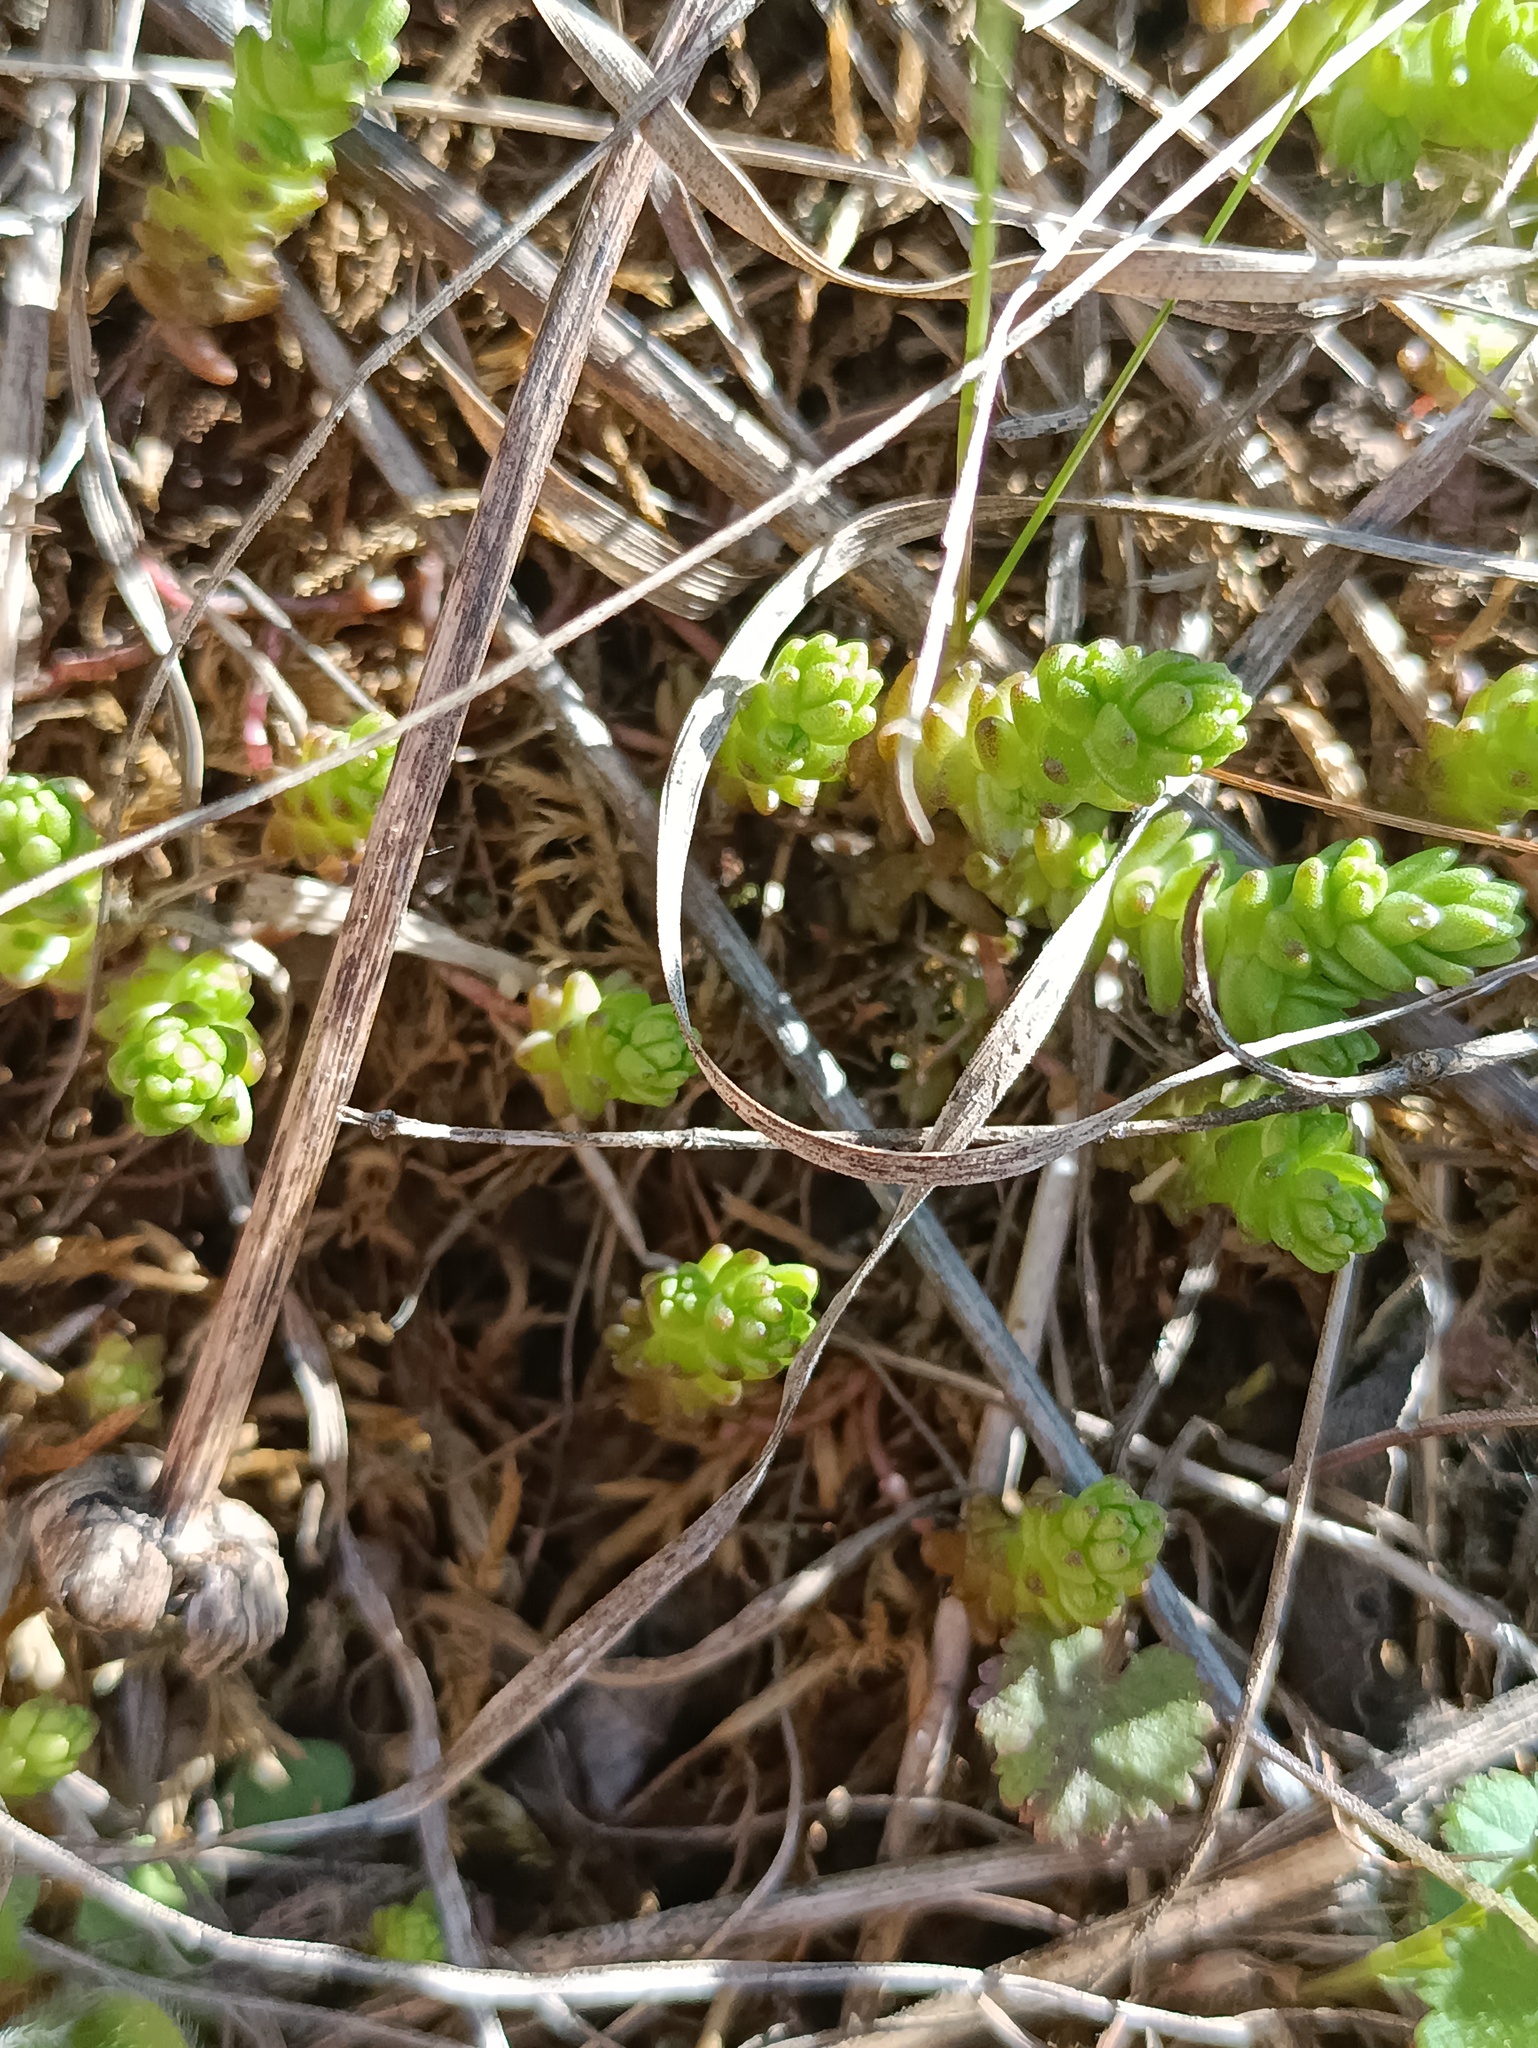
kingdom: Plantae
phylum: Tracheophyta
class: Magnoliopsida
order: Saxifragales
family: Crassulaceae
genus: Sedum
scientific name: Sedum acre
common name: Biting stonecrop
